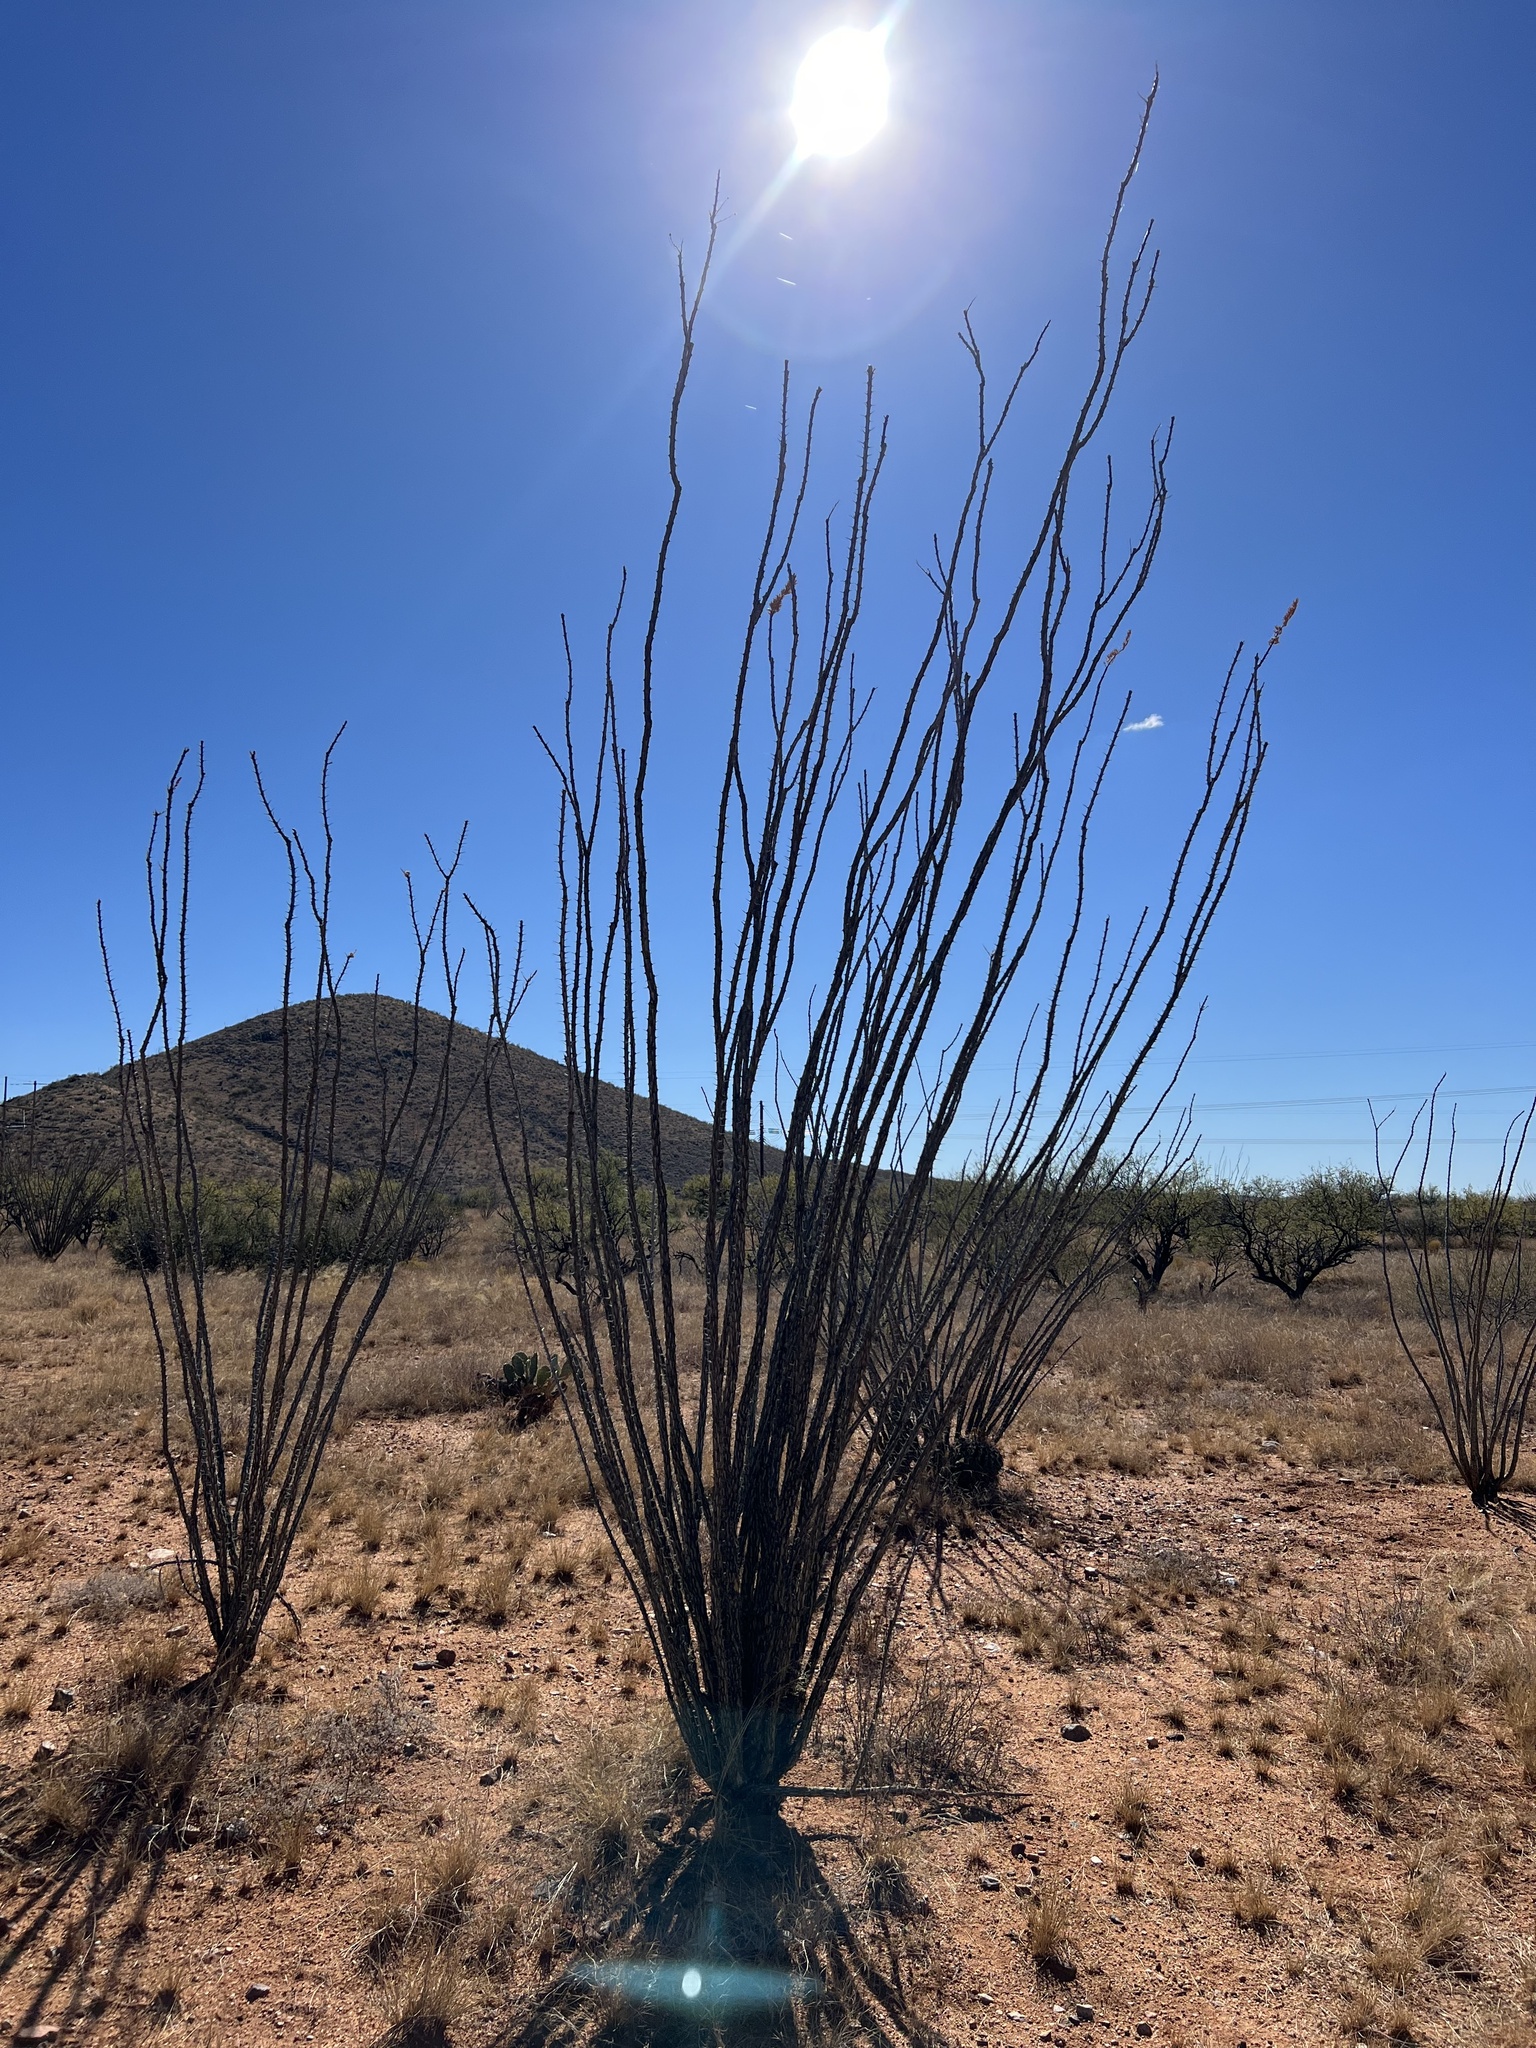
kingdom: Plantae
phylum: Tracheophyta
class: Magnoliopsida
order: Ericales
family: Fouquieriaceae
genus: Fouquieria
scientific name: Fouquieria splendens
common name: Vine-cactus
